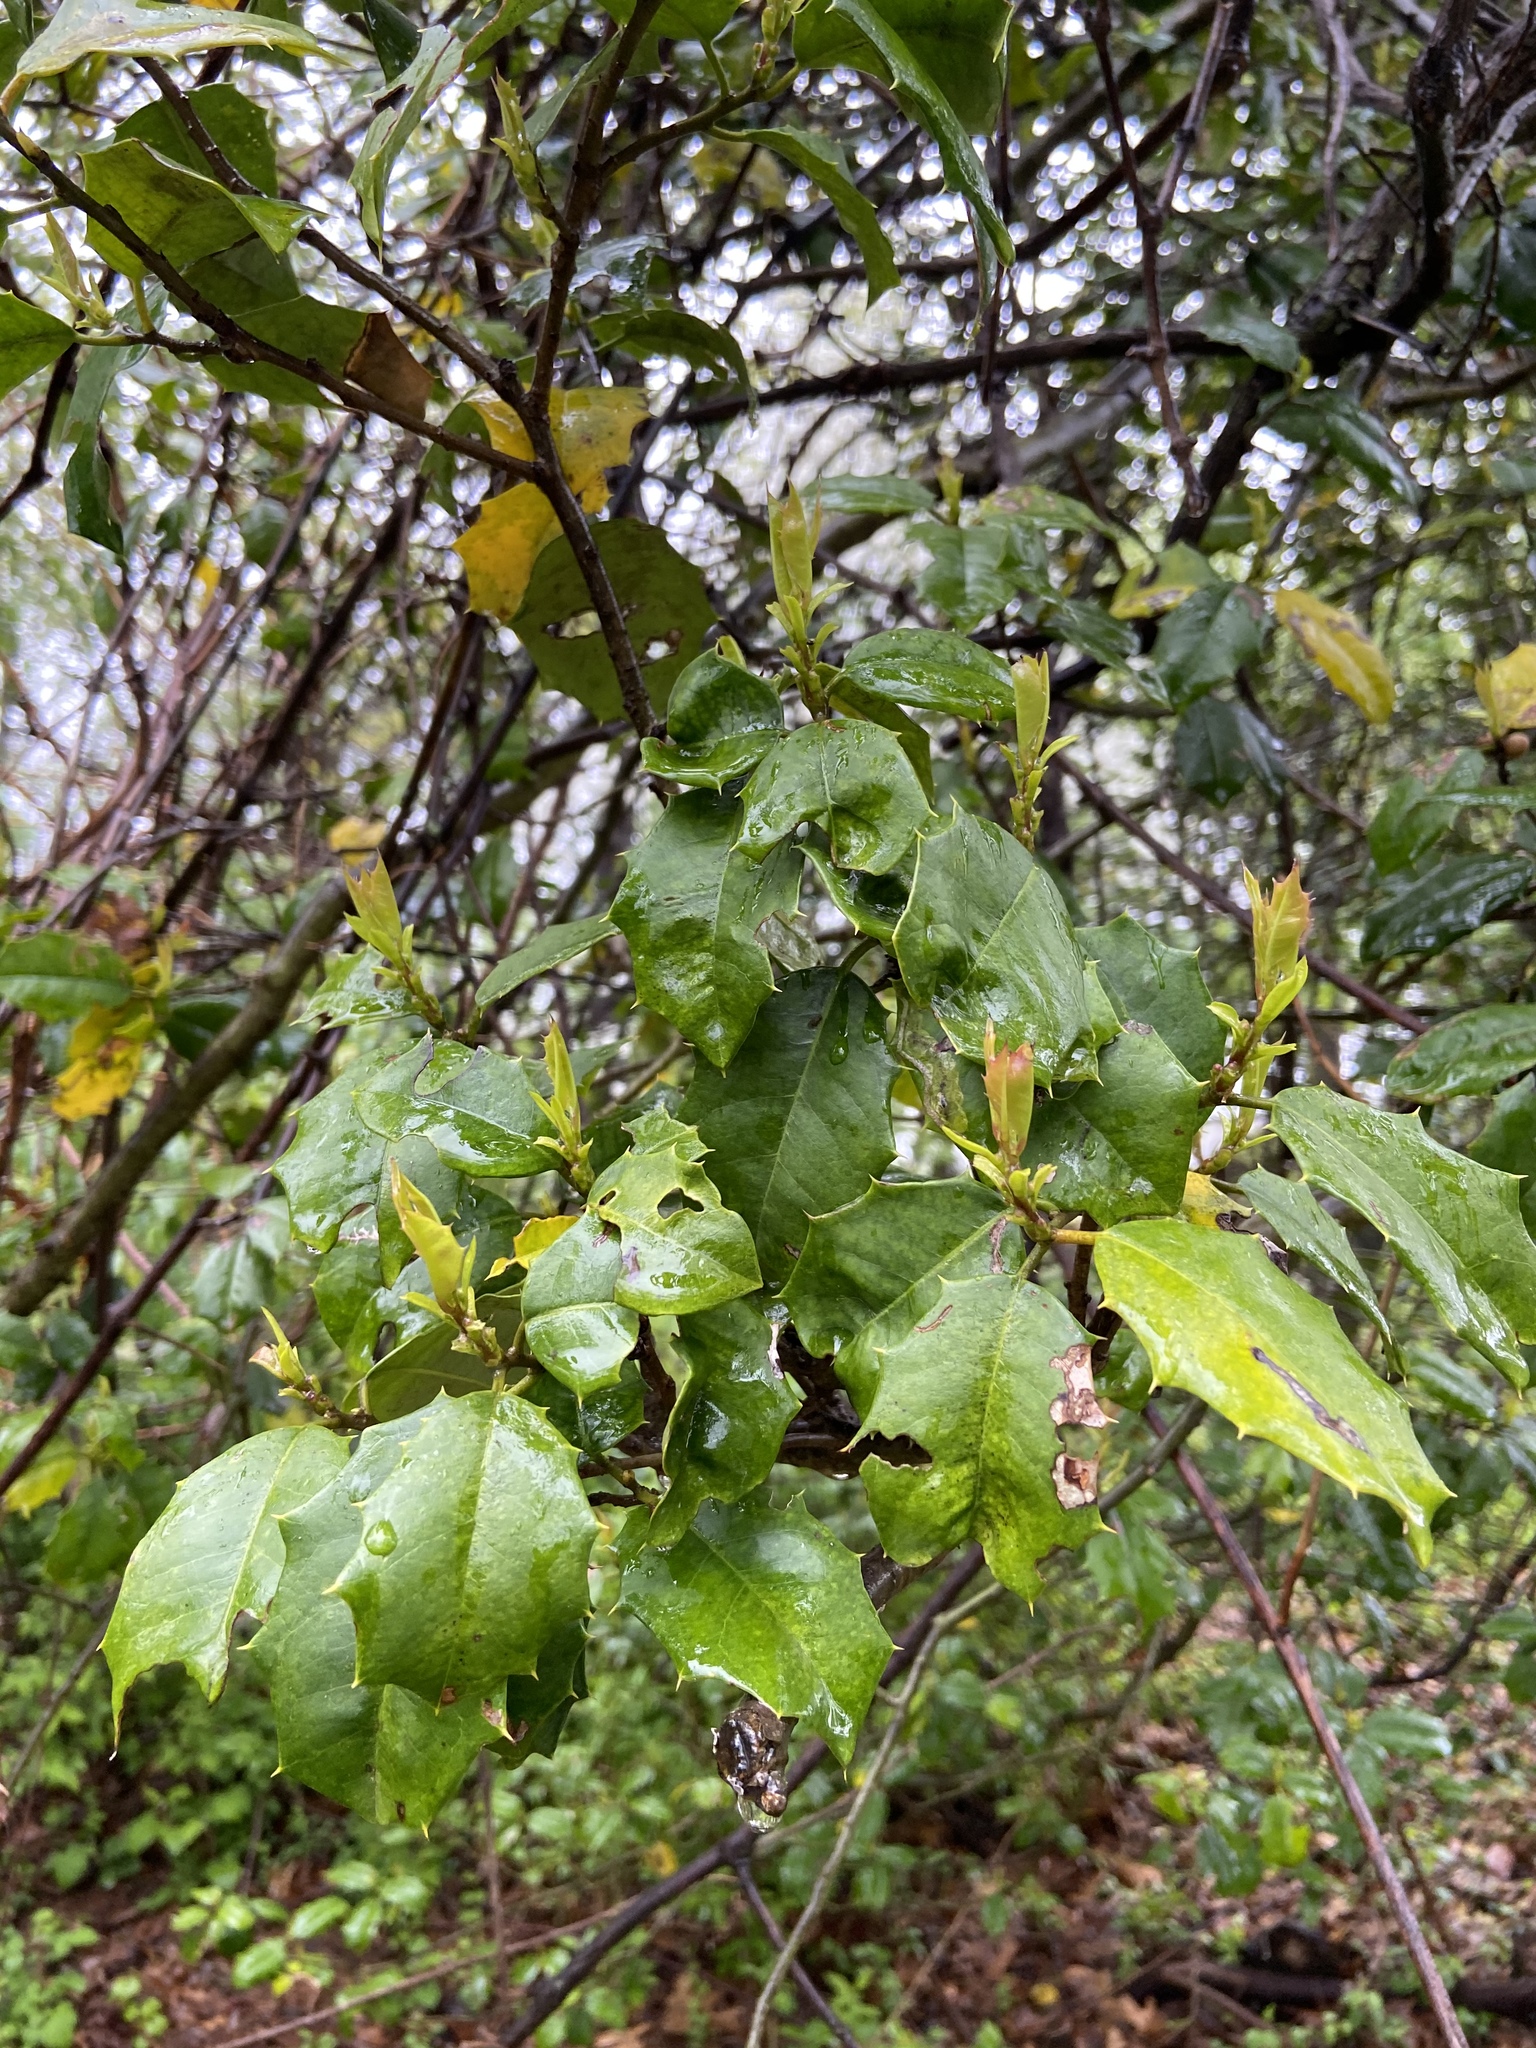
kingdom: Plantae
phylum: Tracheophyta
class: Magnoliopsida
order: Aquifoliales
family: Aquifoliaceae
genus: Ilex
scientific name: Ilex opaca
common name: American holly
